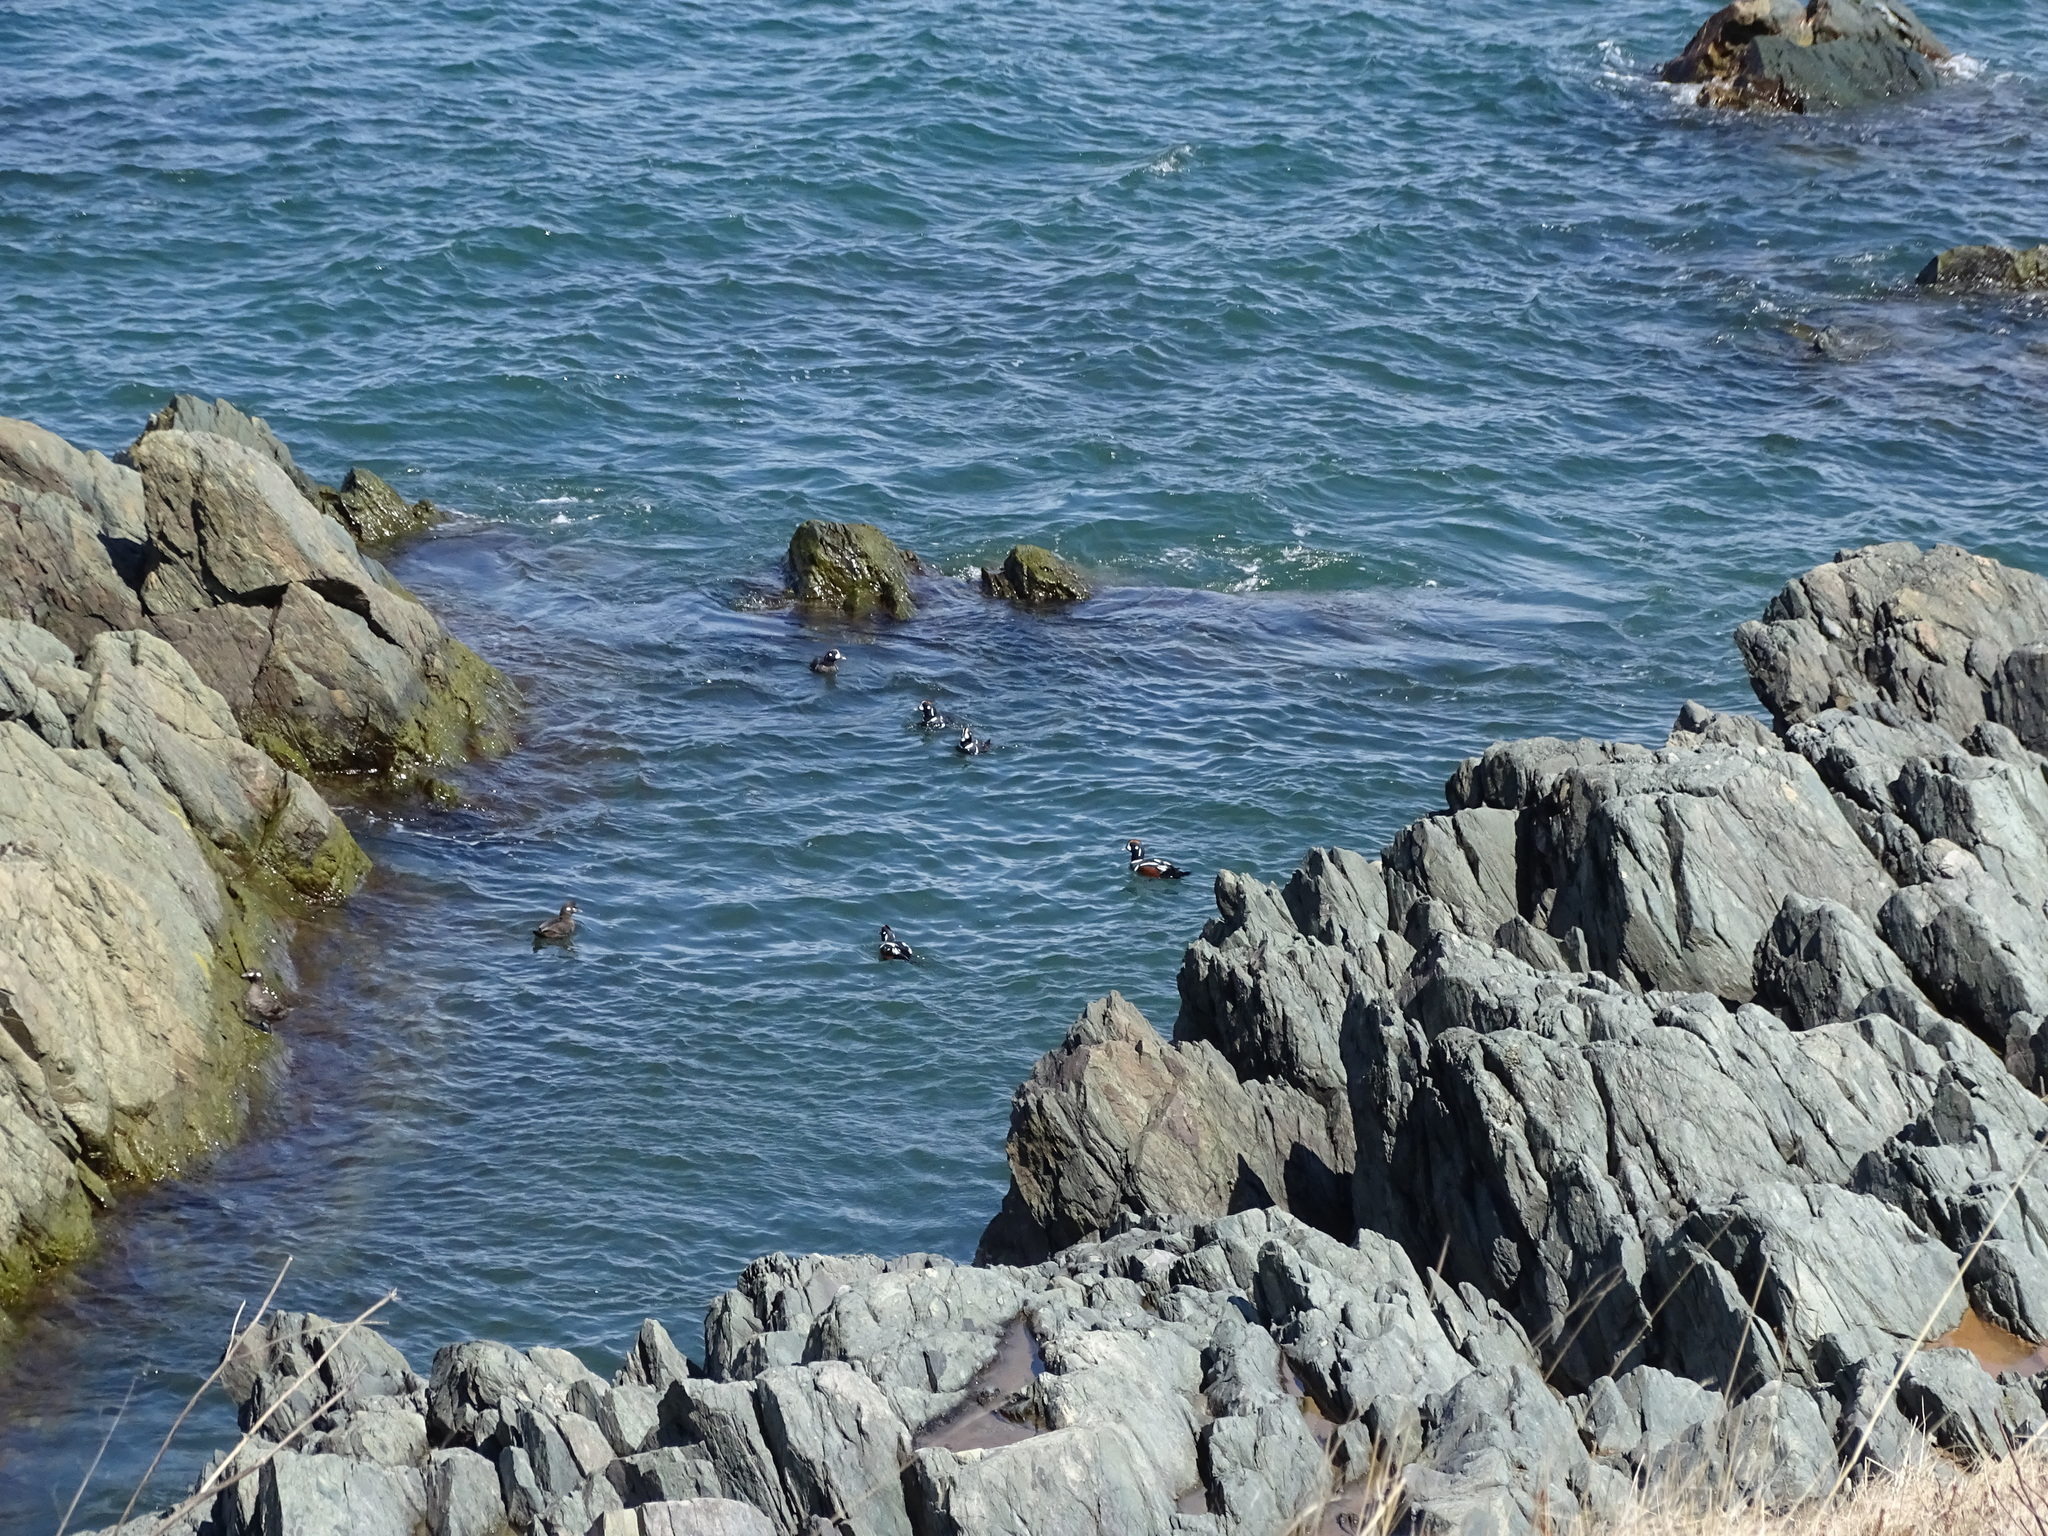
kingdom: Animalia
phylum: Chordata
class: Aves
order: Anseriformes
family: Anatidae
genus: Histrionicus
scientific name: Histrionicus histrionicus
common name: Harlequin duck
